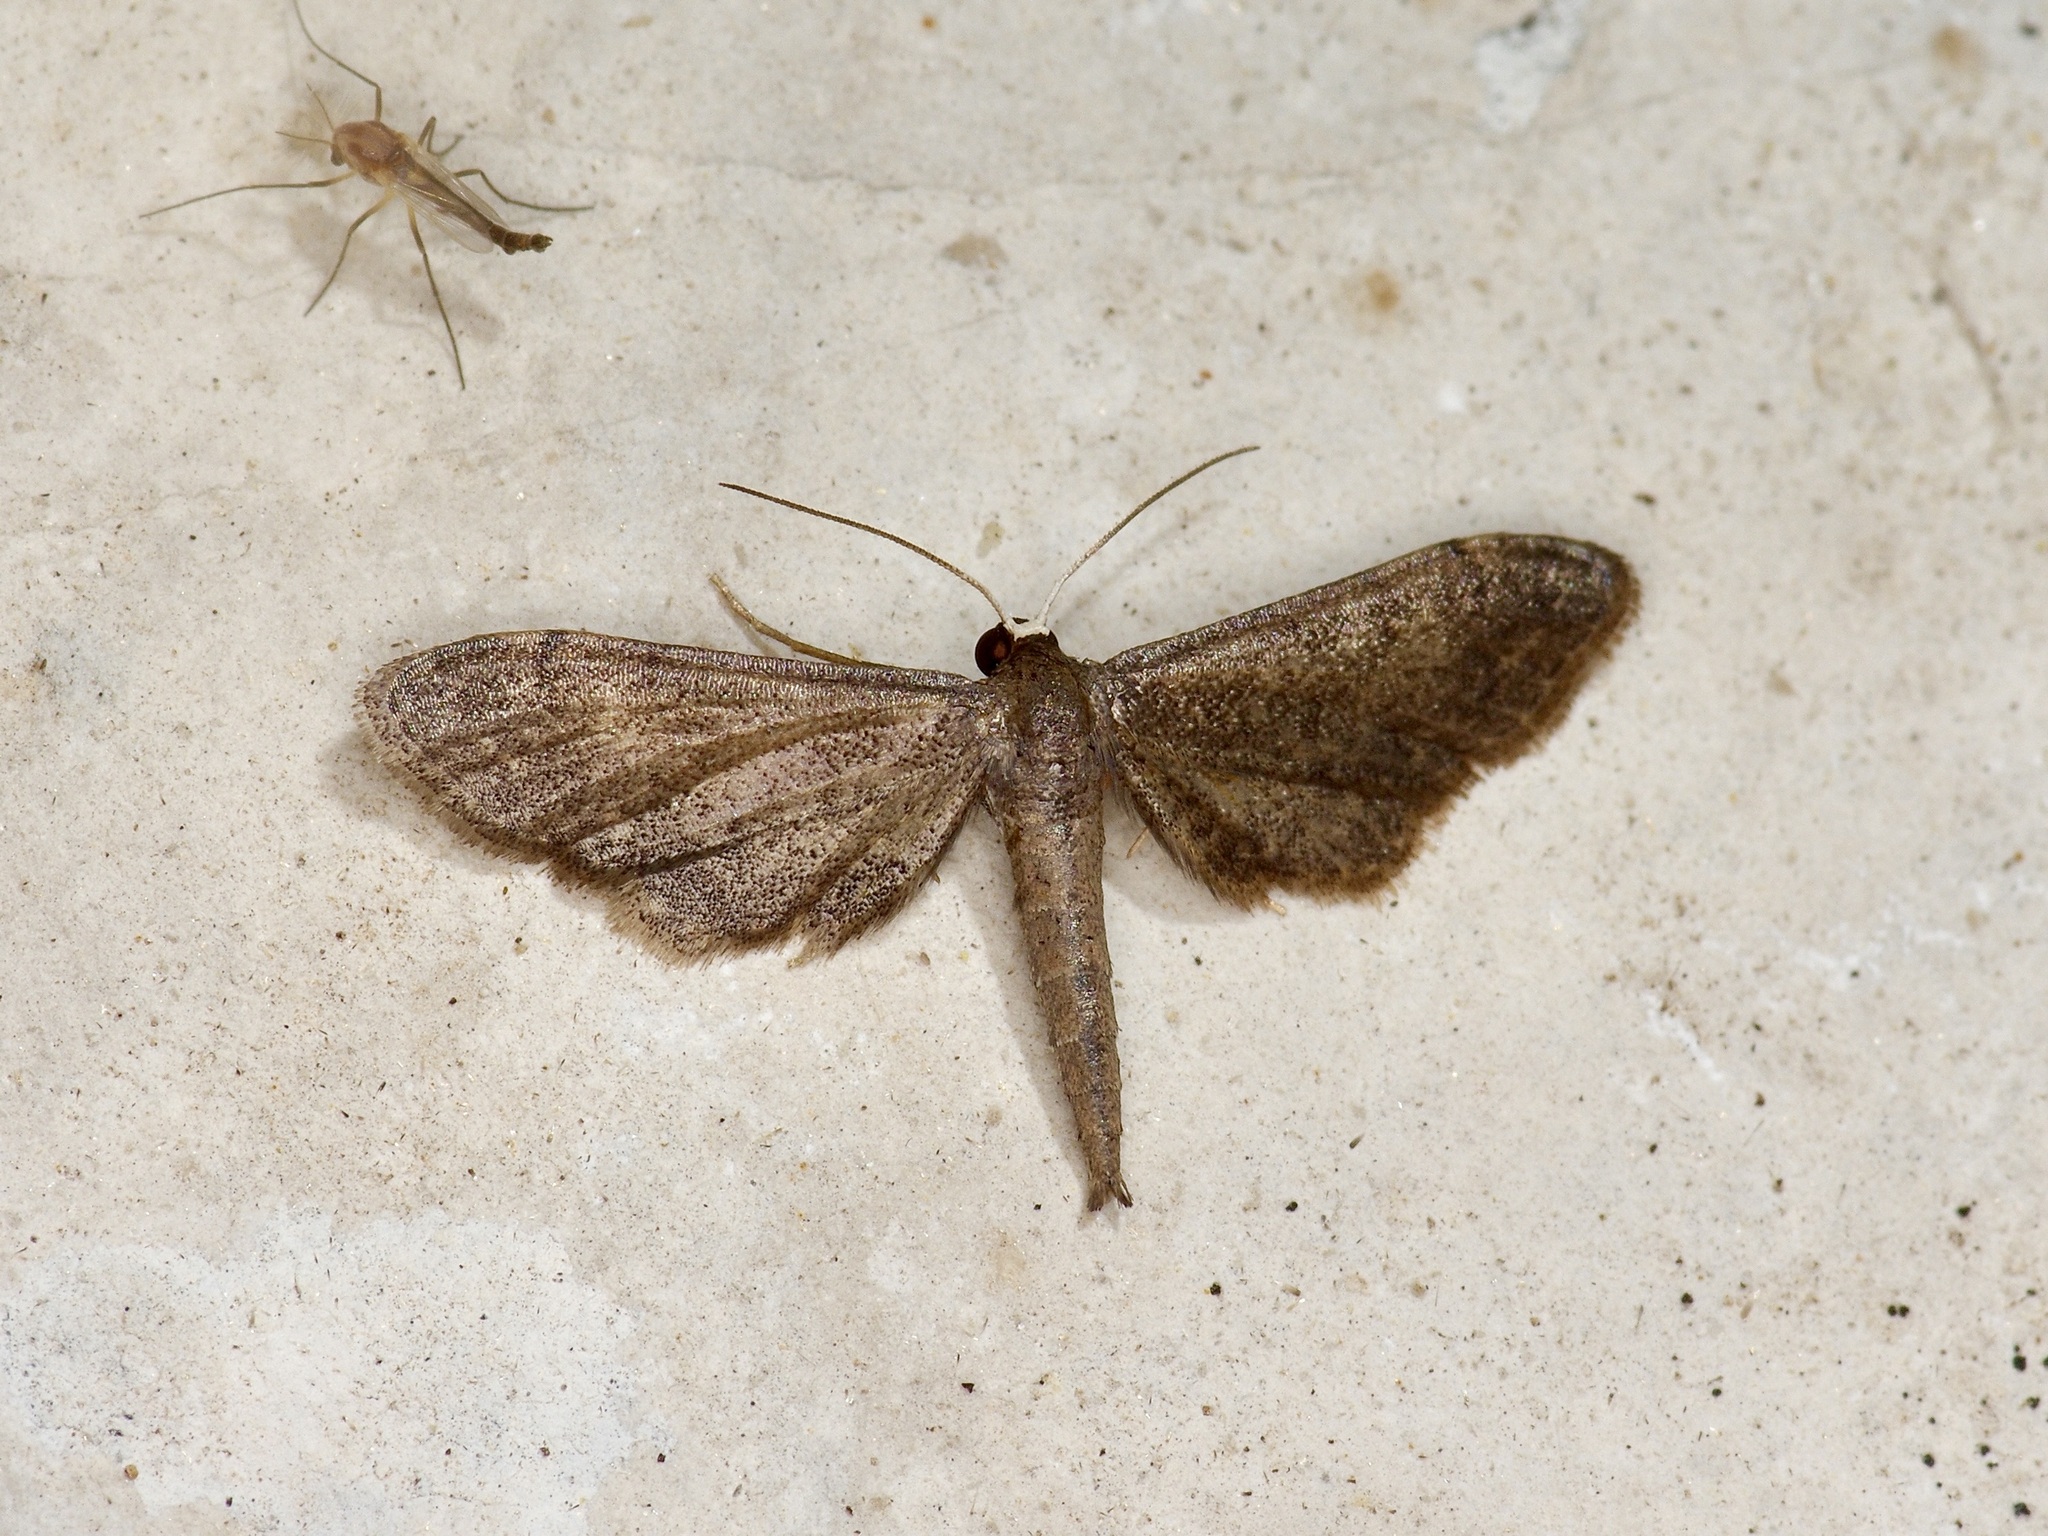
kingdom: Animalia
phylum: Arthropoda
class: Insecta
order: Lepidoptera
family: Geometridae
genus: Protoproutia
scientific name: Protoproutia laredoata
